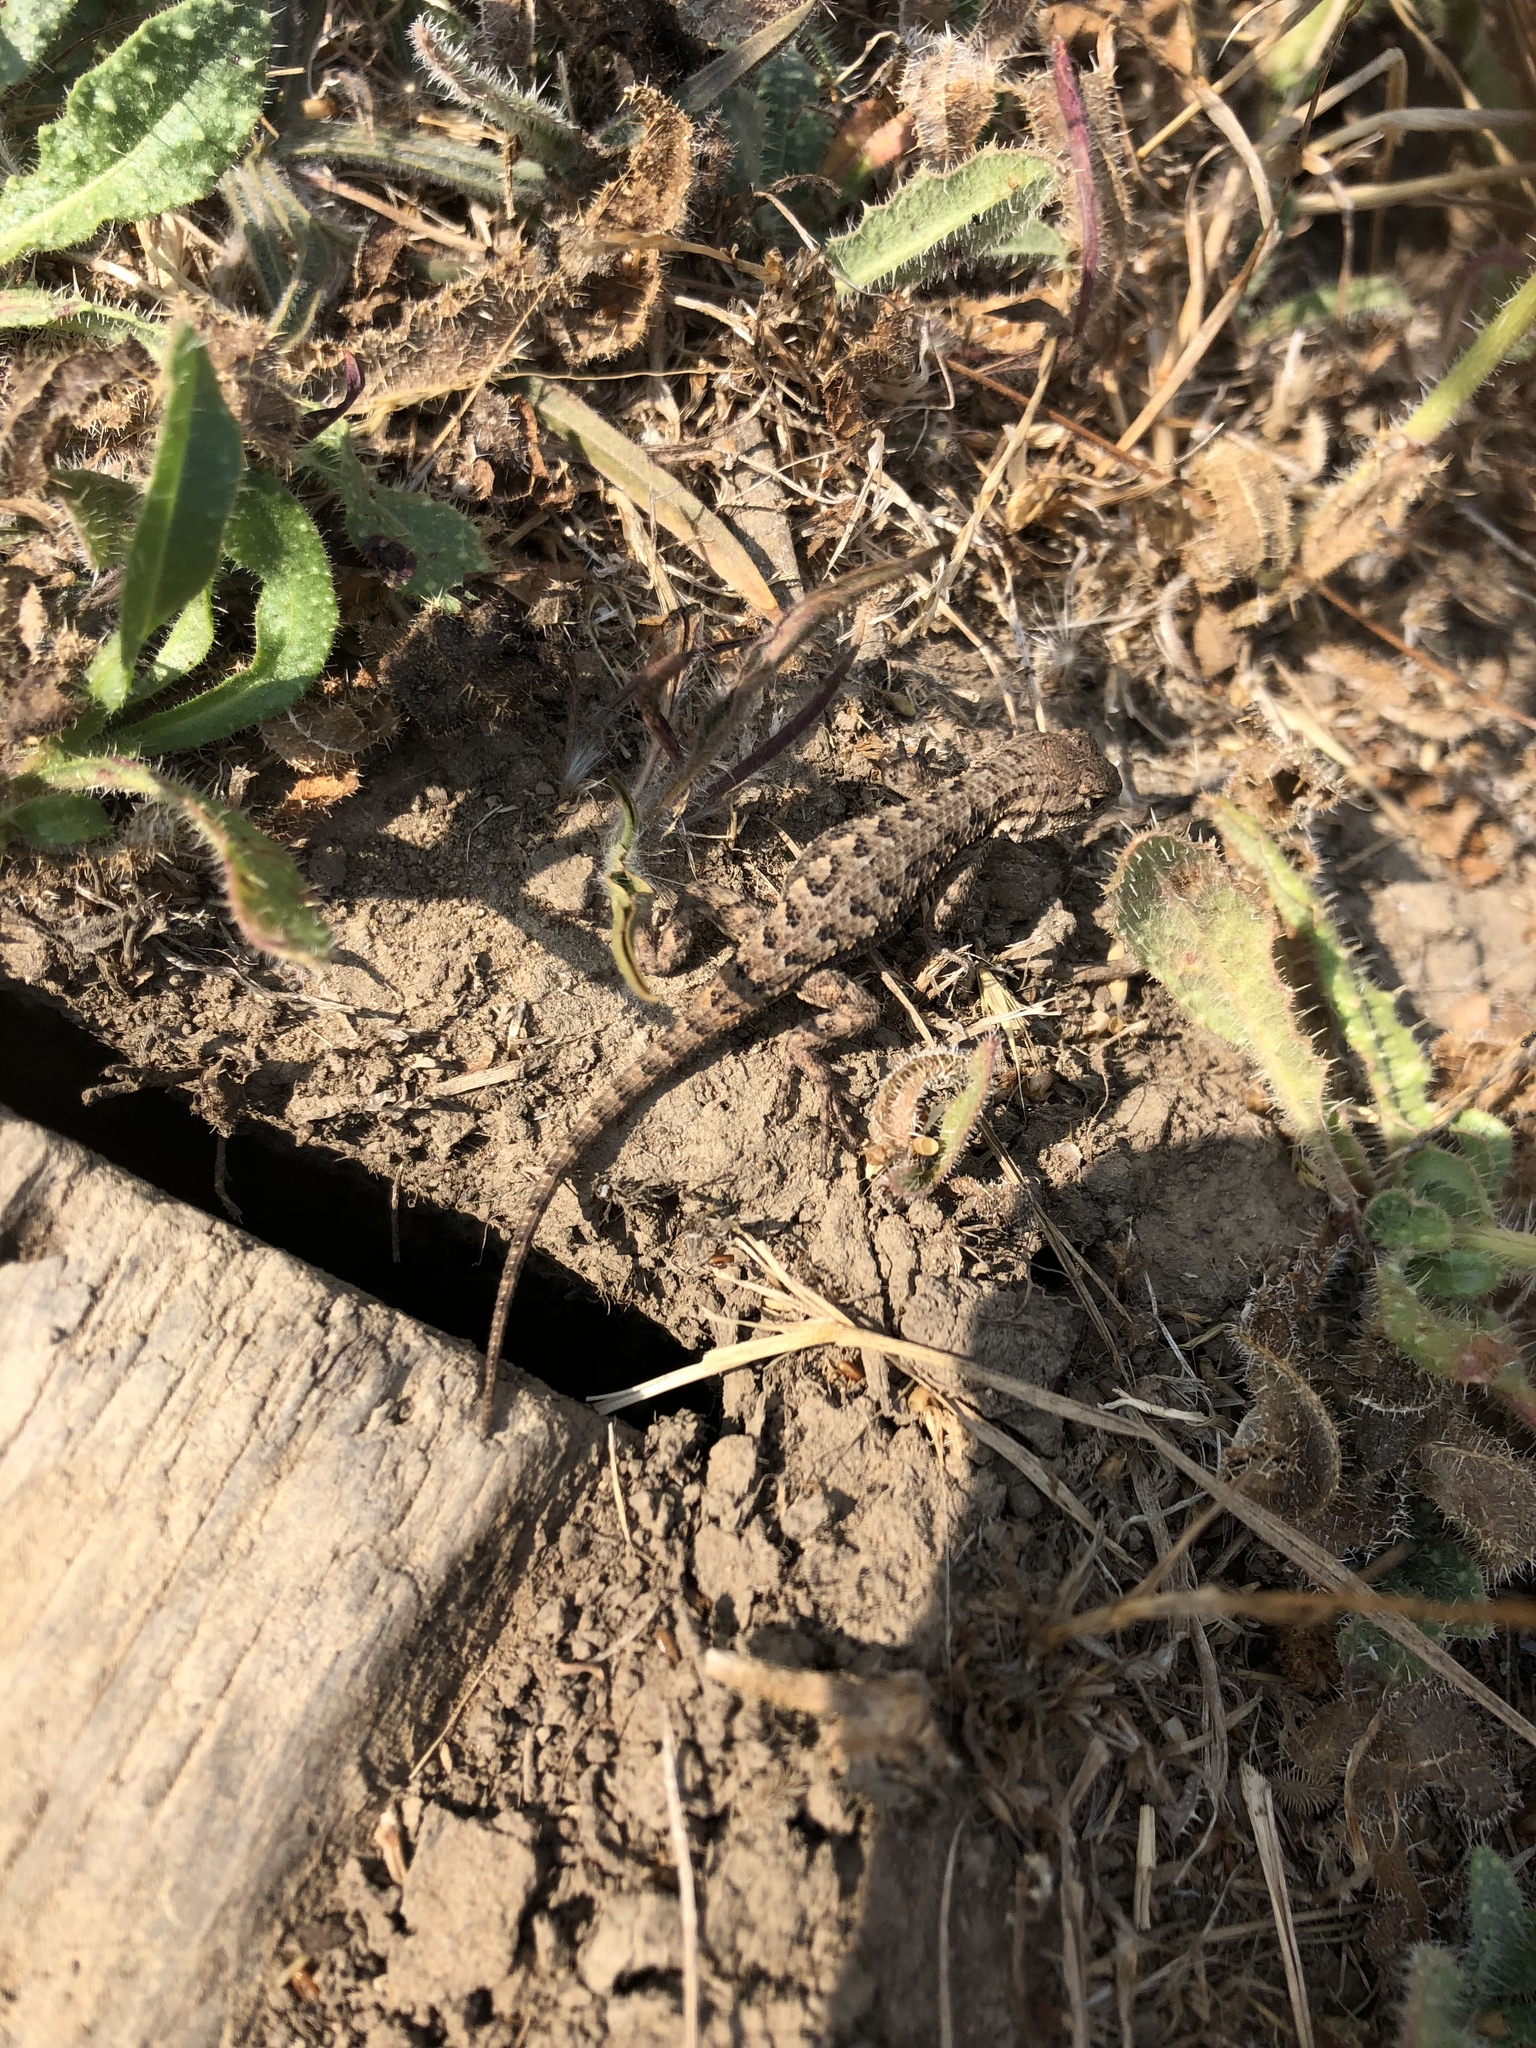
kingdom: Animalia
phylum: Chordata
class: Squamata
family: Phrynosomatidae
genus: Sceloporus
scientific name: Sceloporus occidentalis
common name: Western fence lizard
